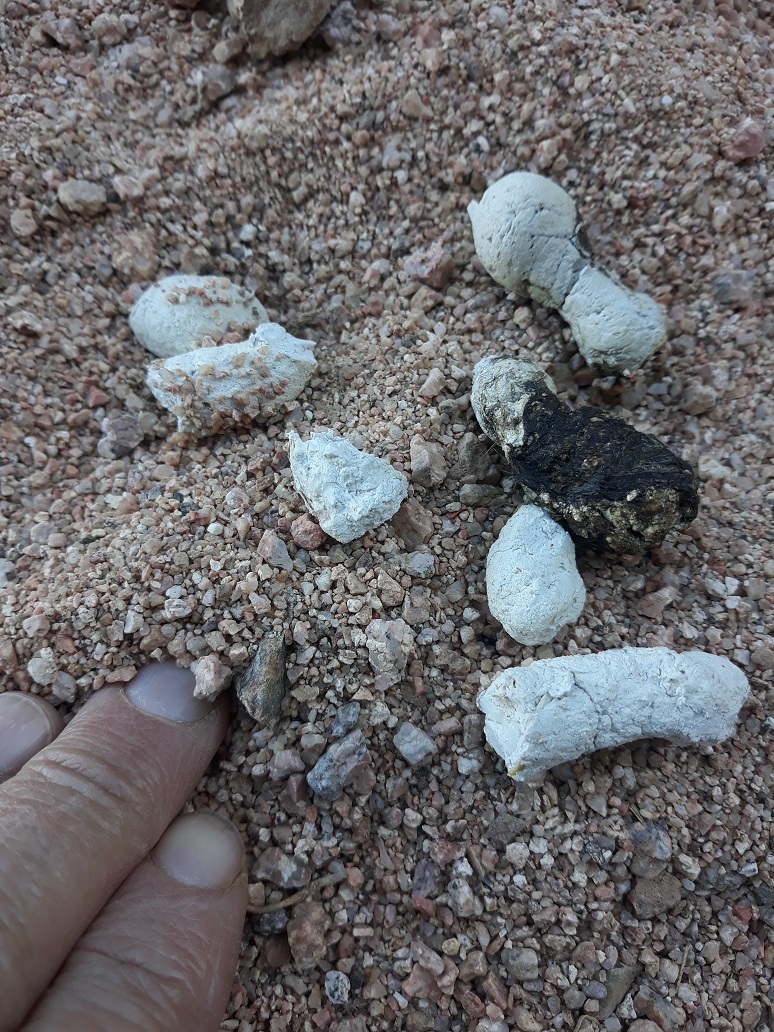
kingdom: Animalia
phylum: Chordata
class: Mammalia
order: Carnivora
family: Canidae
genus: Vulpes
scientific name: Vulpes zerda
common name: Fennec fox
